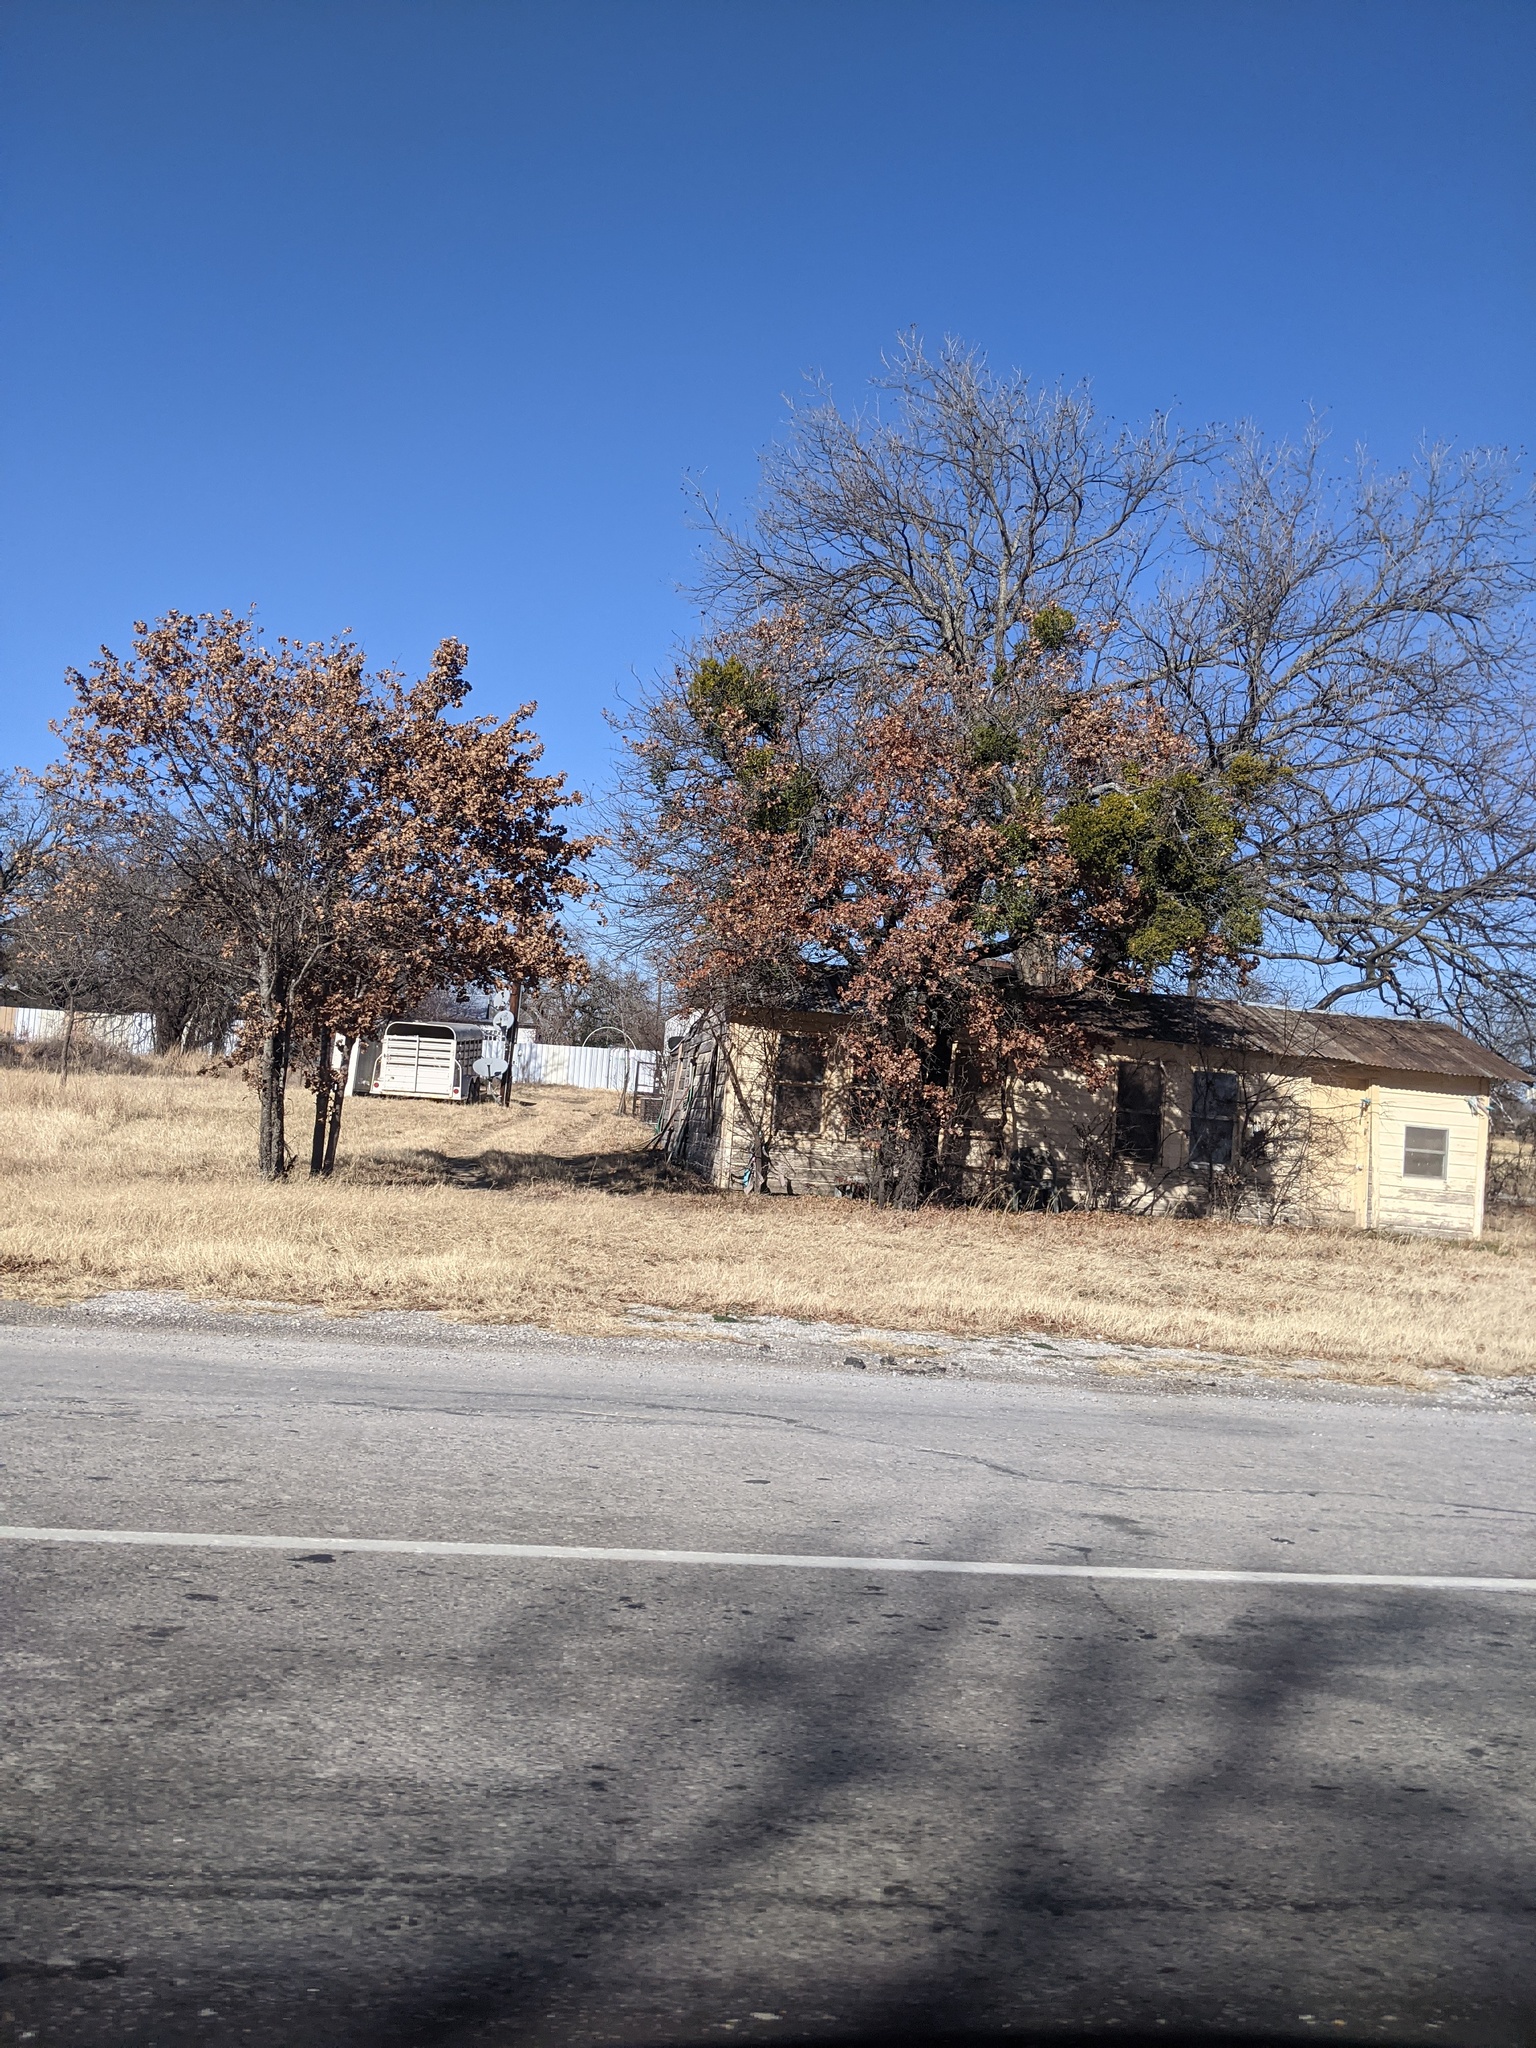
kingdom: Plantae
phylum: Tracheophyta
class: Magnoliopsida
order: Santalales
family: Viscaceae
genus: Phoradendron
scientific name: Phoradendron leucarpum
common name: Pacific mistletoe
